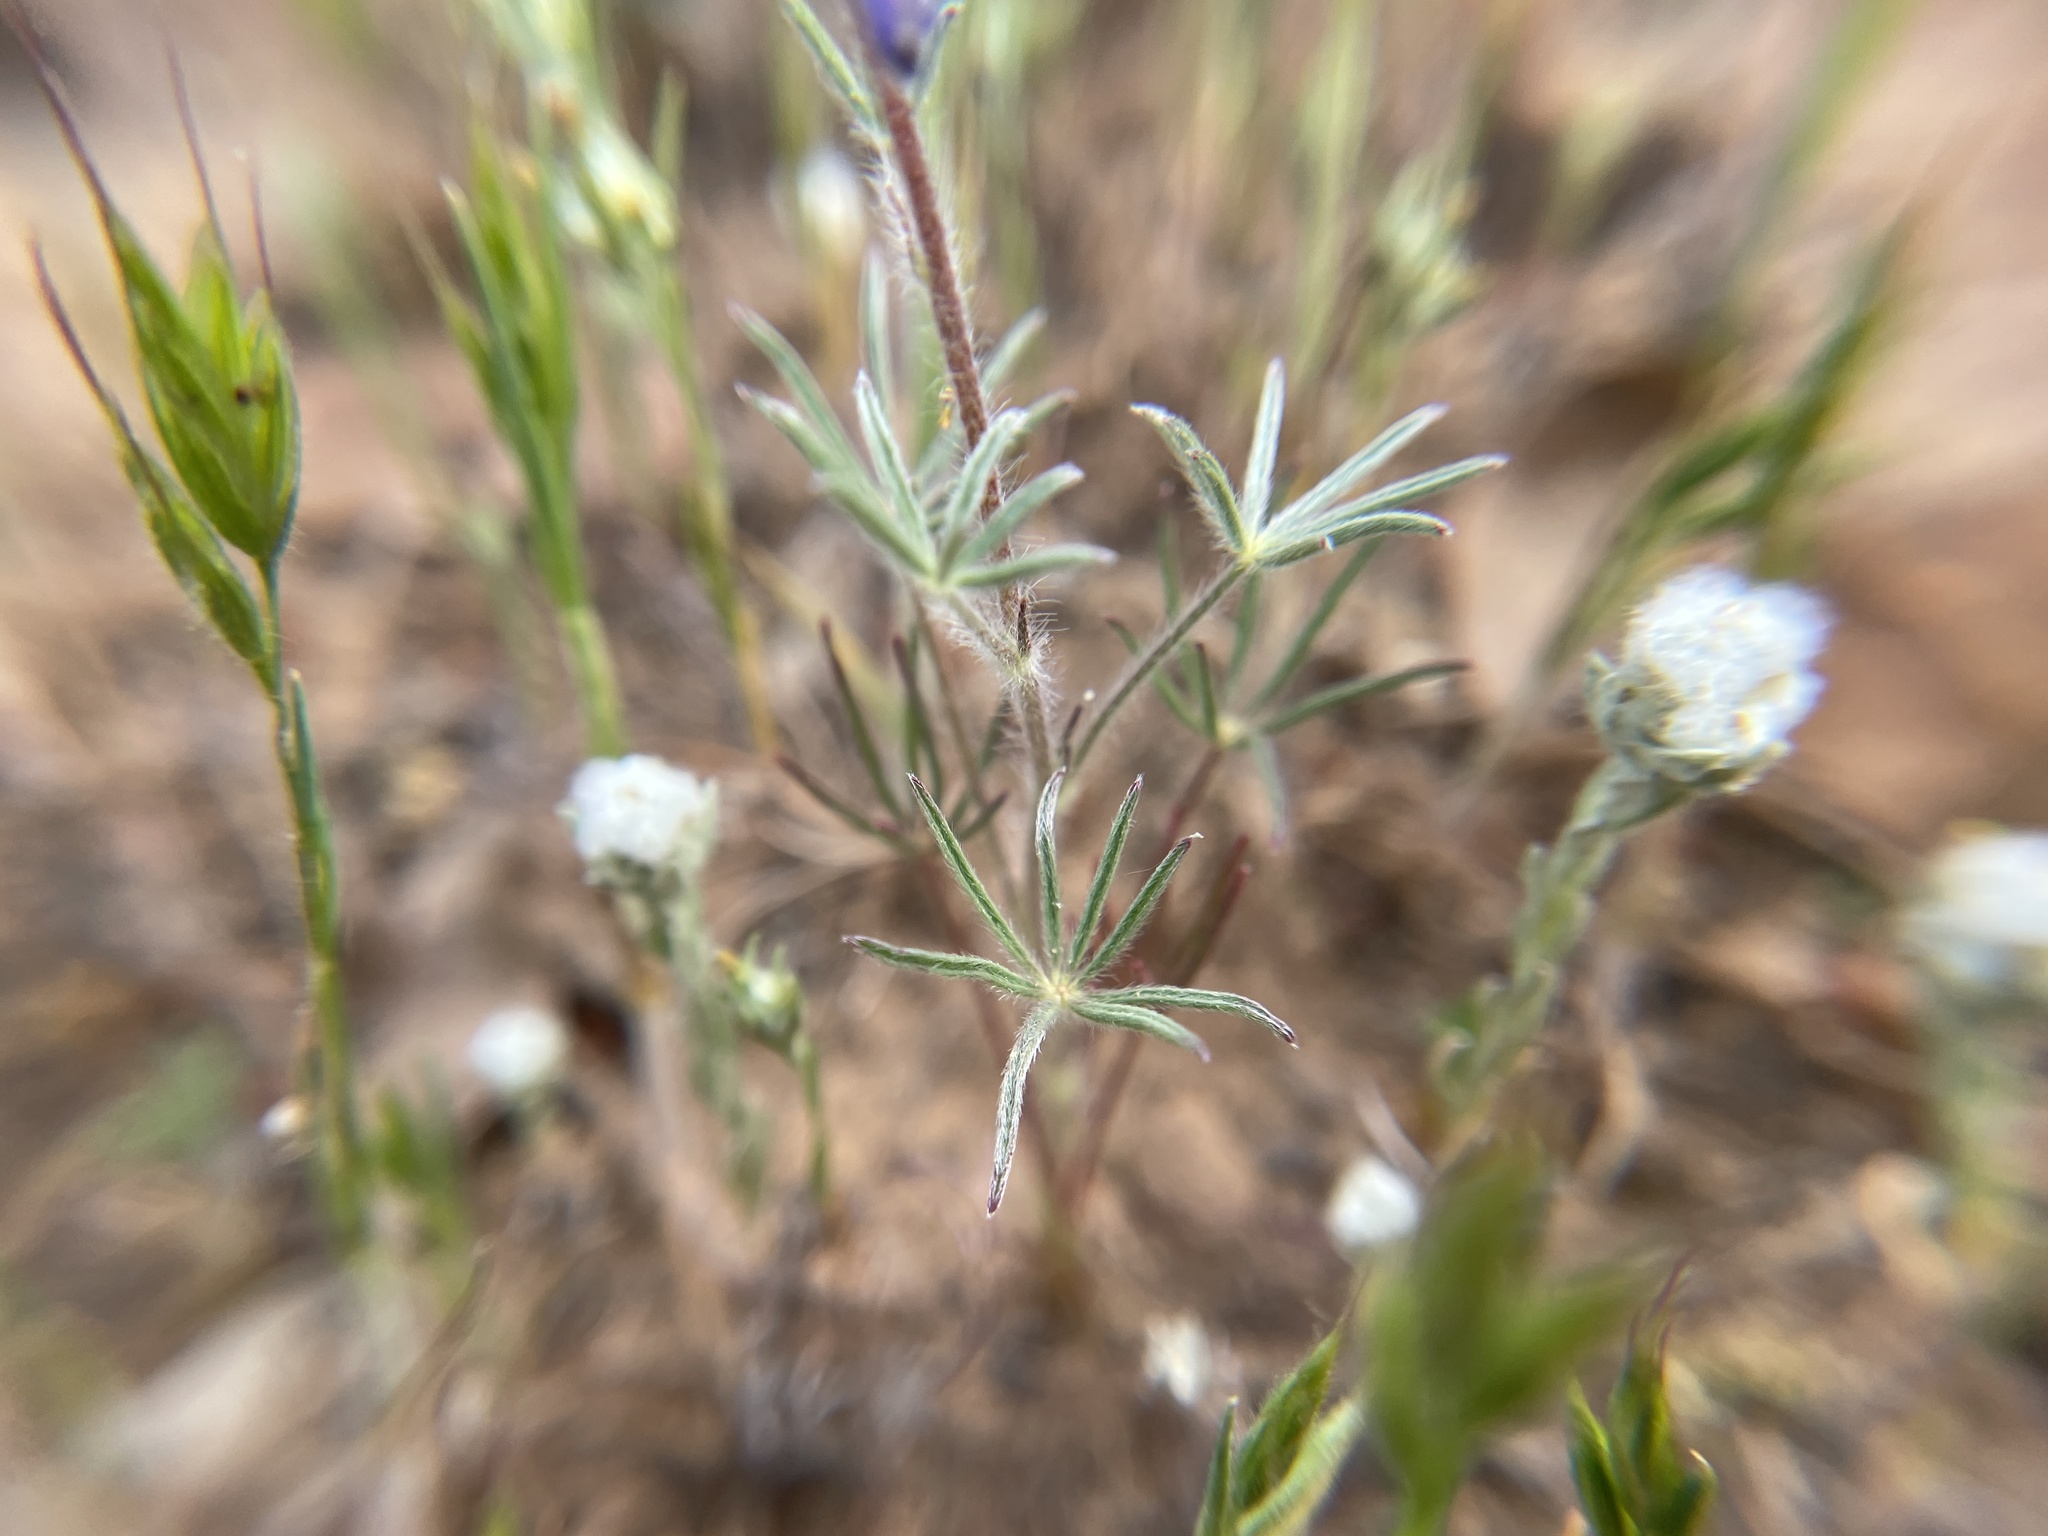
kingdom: Plantae
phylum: Tracheophyta
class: Magnoliopsida
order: Fabales
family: Fabaceae
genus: Lupinus
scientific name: Lupinus bicolor
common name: Miniature lupine
